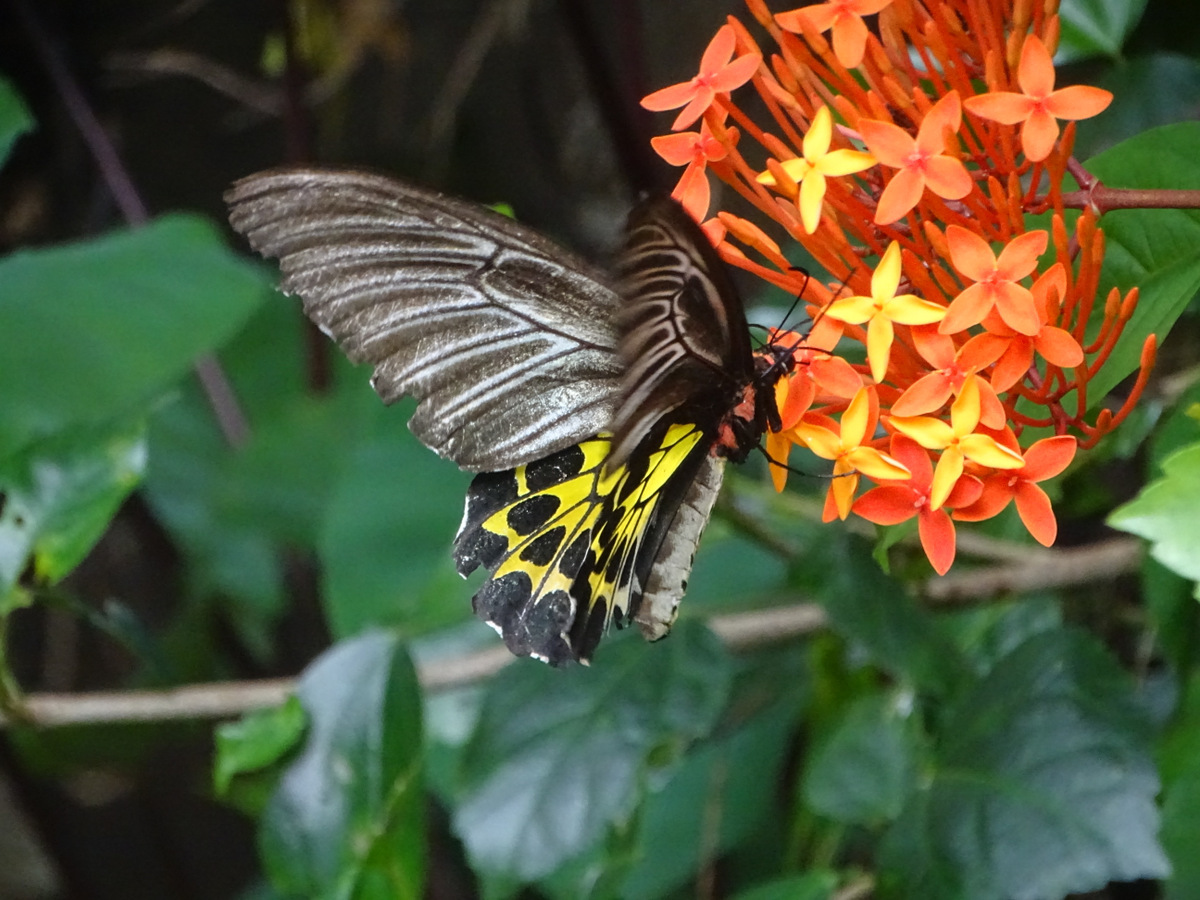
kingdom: Animalia
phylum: Arthropoda
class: Insecta
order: Lepidoptera
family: Papilionidae
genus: Troides
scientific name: Troides minos
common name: Malabar birdwing
